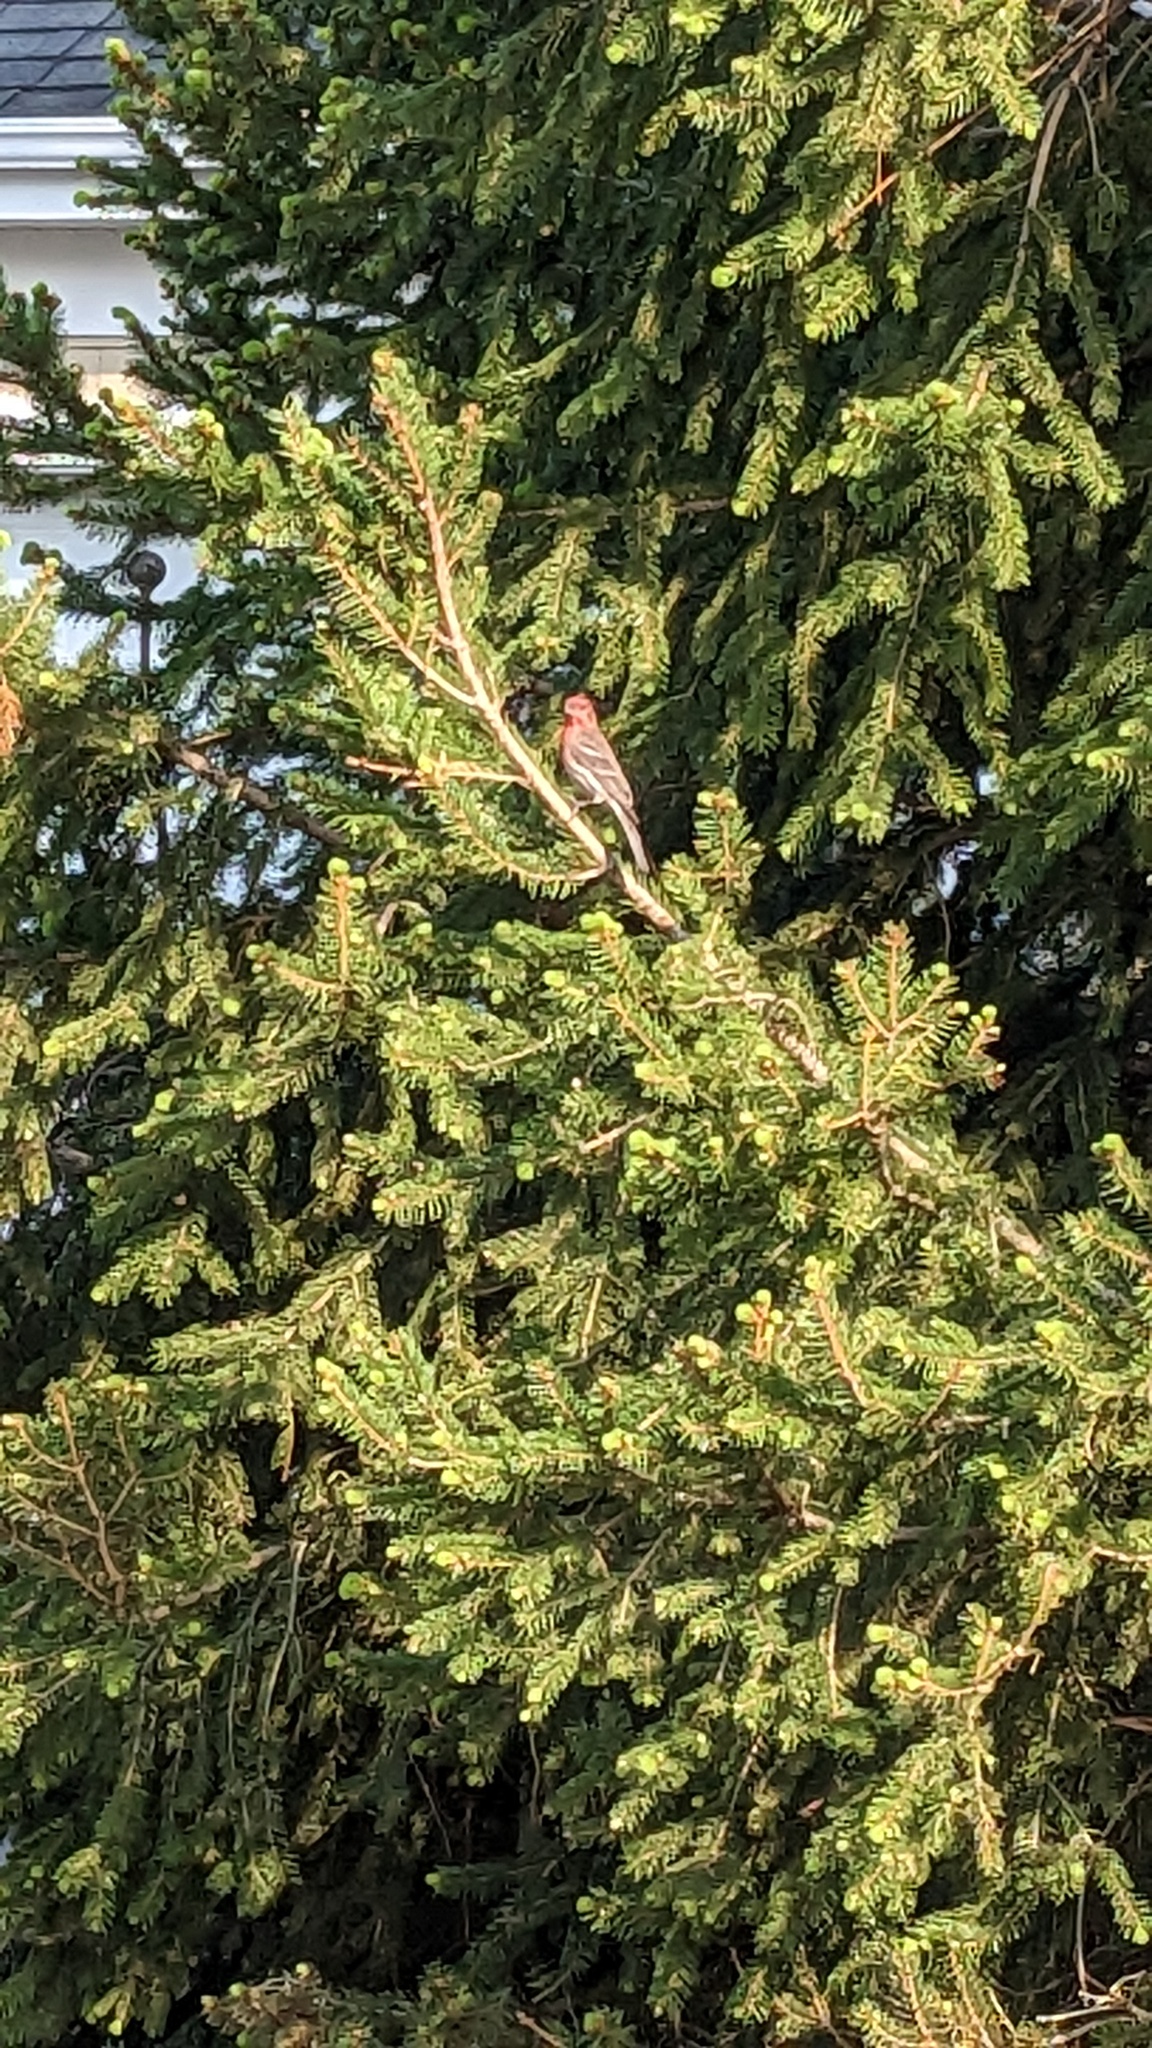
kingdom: Animalia
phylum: Chordata
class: Aves
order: Passeriformes
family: Fringillidae
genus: Haemorhous
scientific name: Haemorhous mexicanus
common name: House finch
